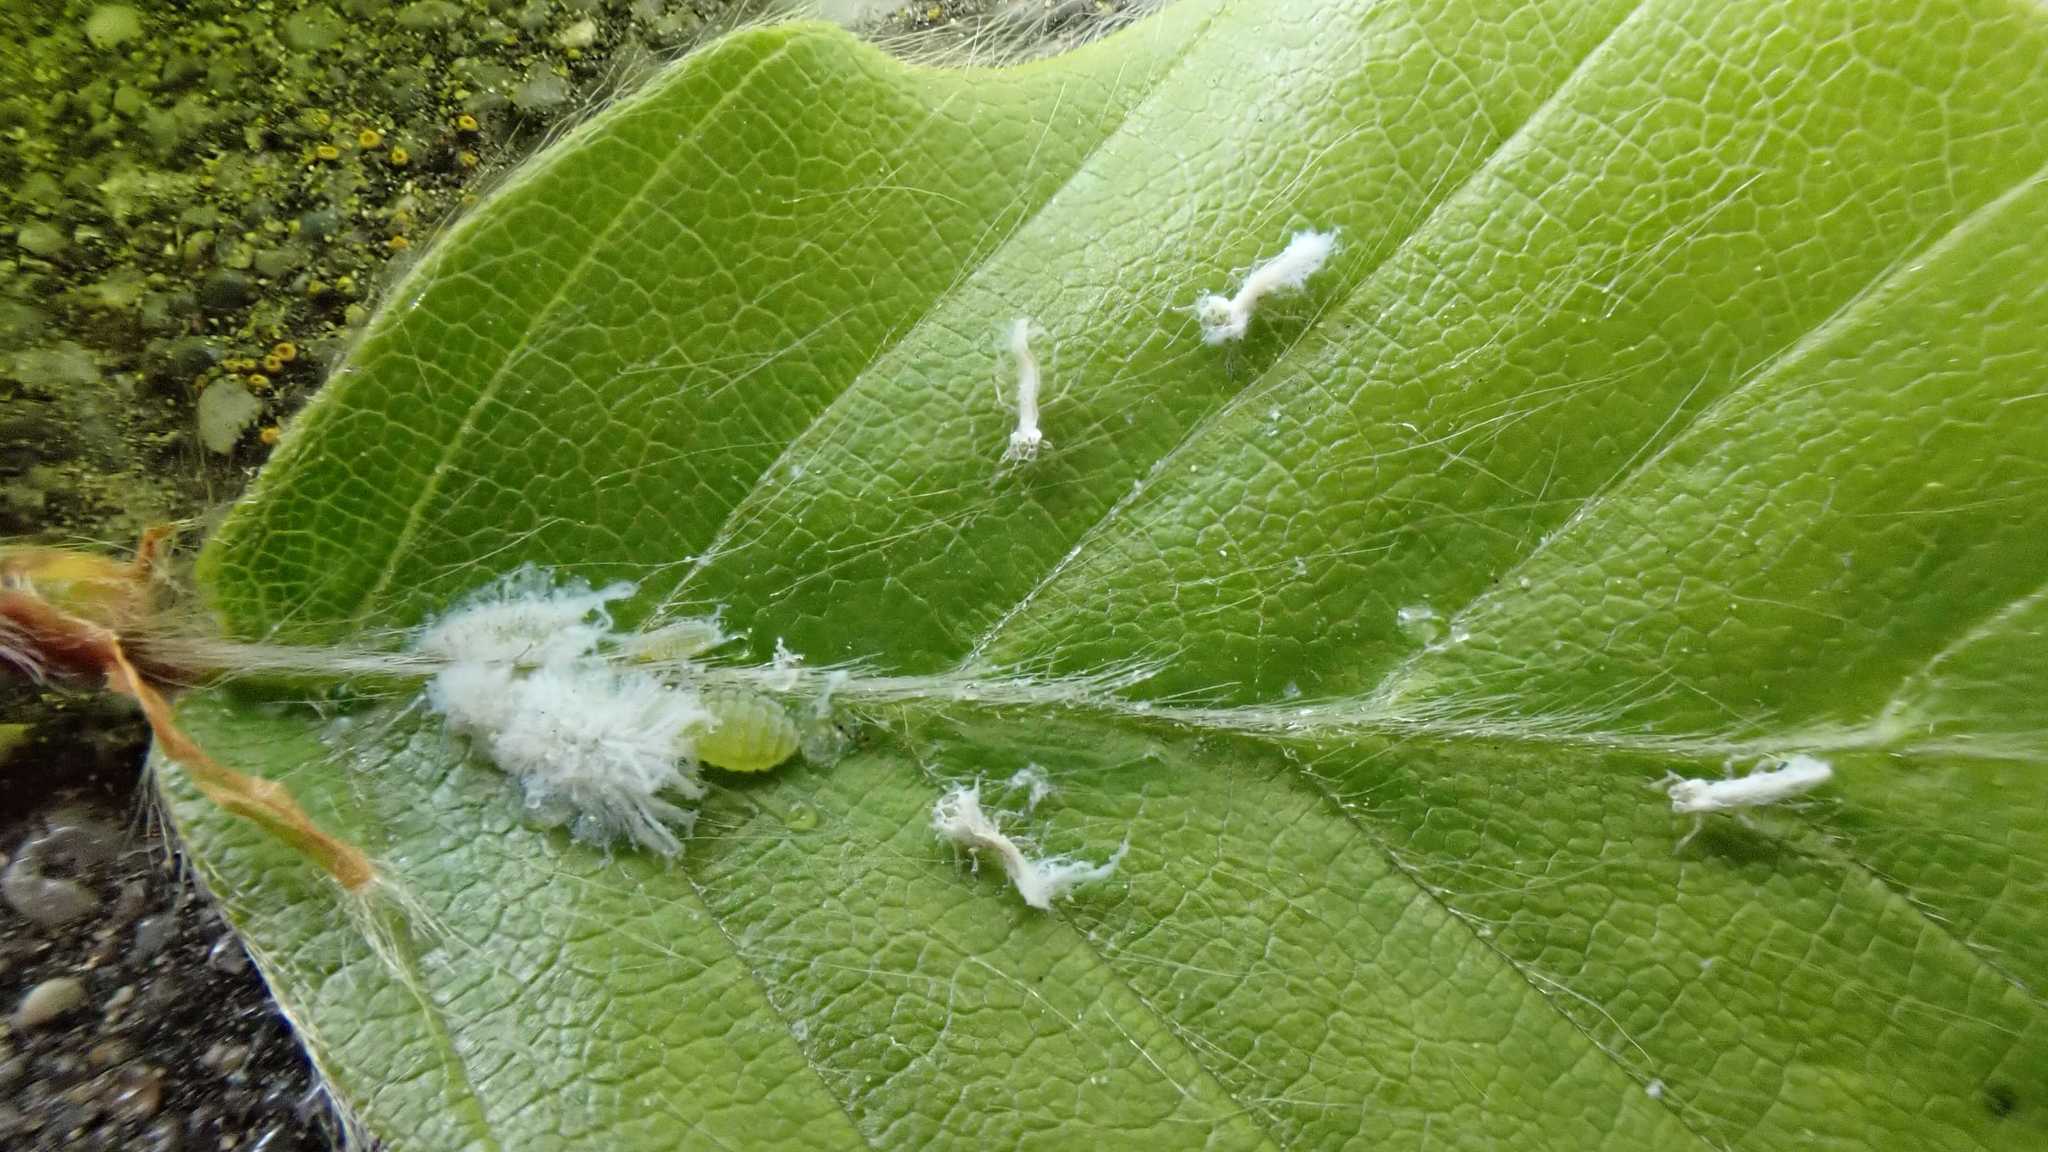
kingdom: Animalia
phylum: Arthropoda
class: Insecta
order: Hemiptera
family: Aphididae
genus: Phyllaphis
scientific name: Phyllaphis fagi
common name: Beech aphid
